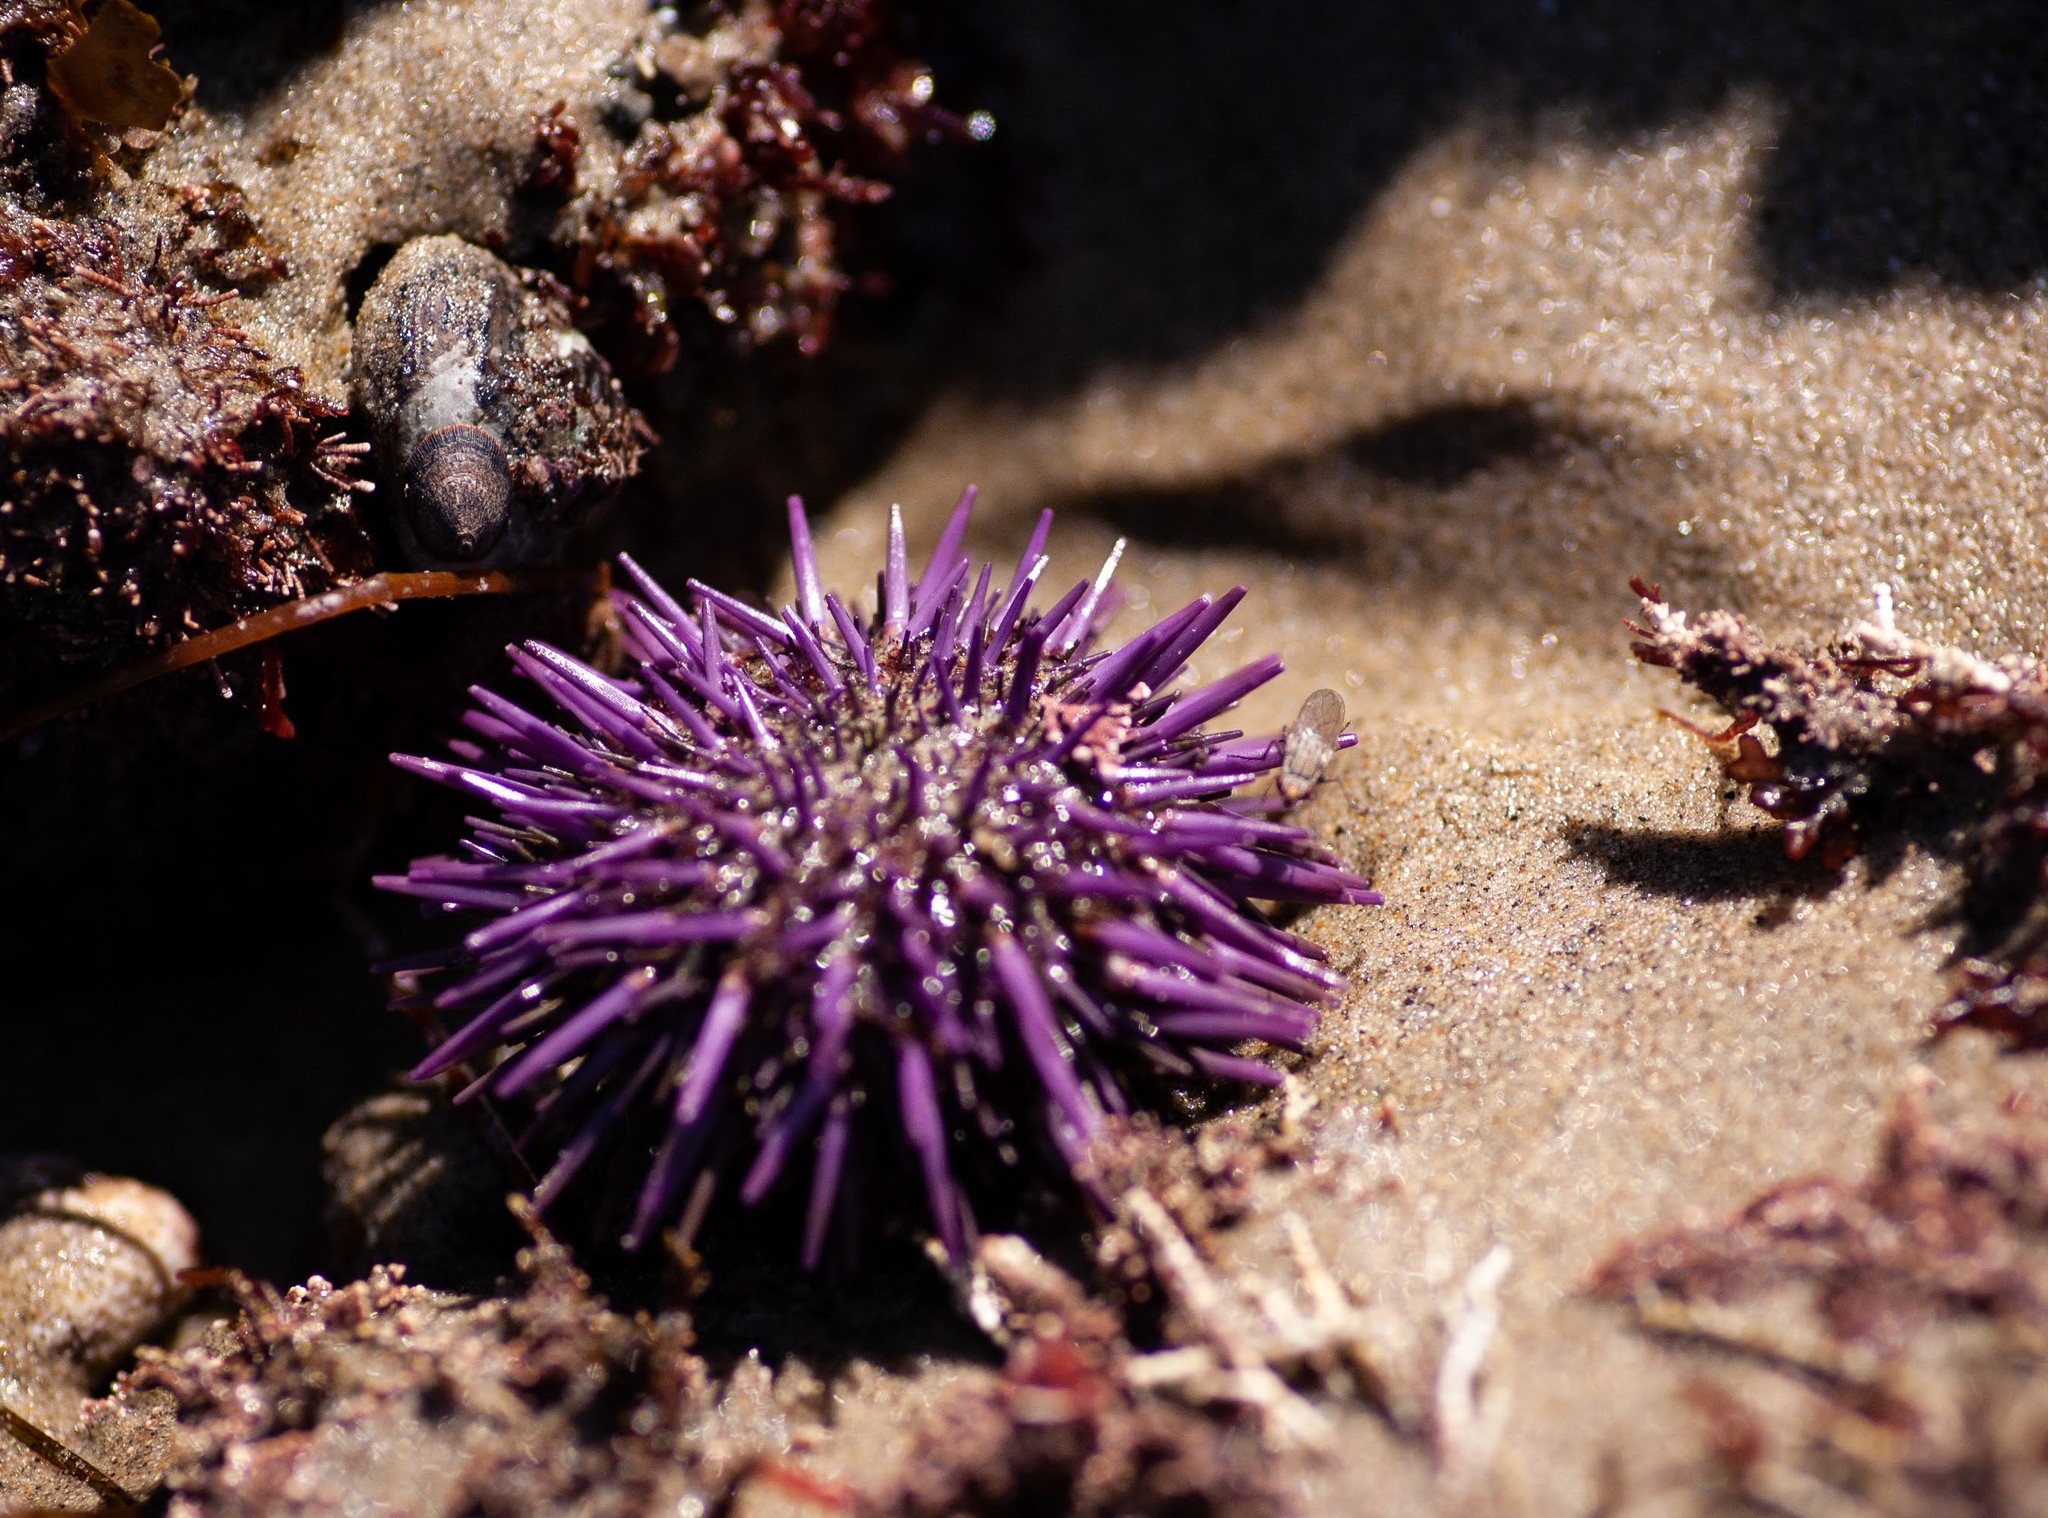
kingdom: Animalia
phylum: Echinodermata
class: Echinoidea
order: Camarodonta
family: Strongylocentrotidae
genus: Strongylocentrotus
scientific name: Strongylocentrotus purpuratus
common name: Purple sea urchin
